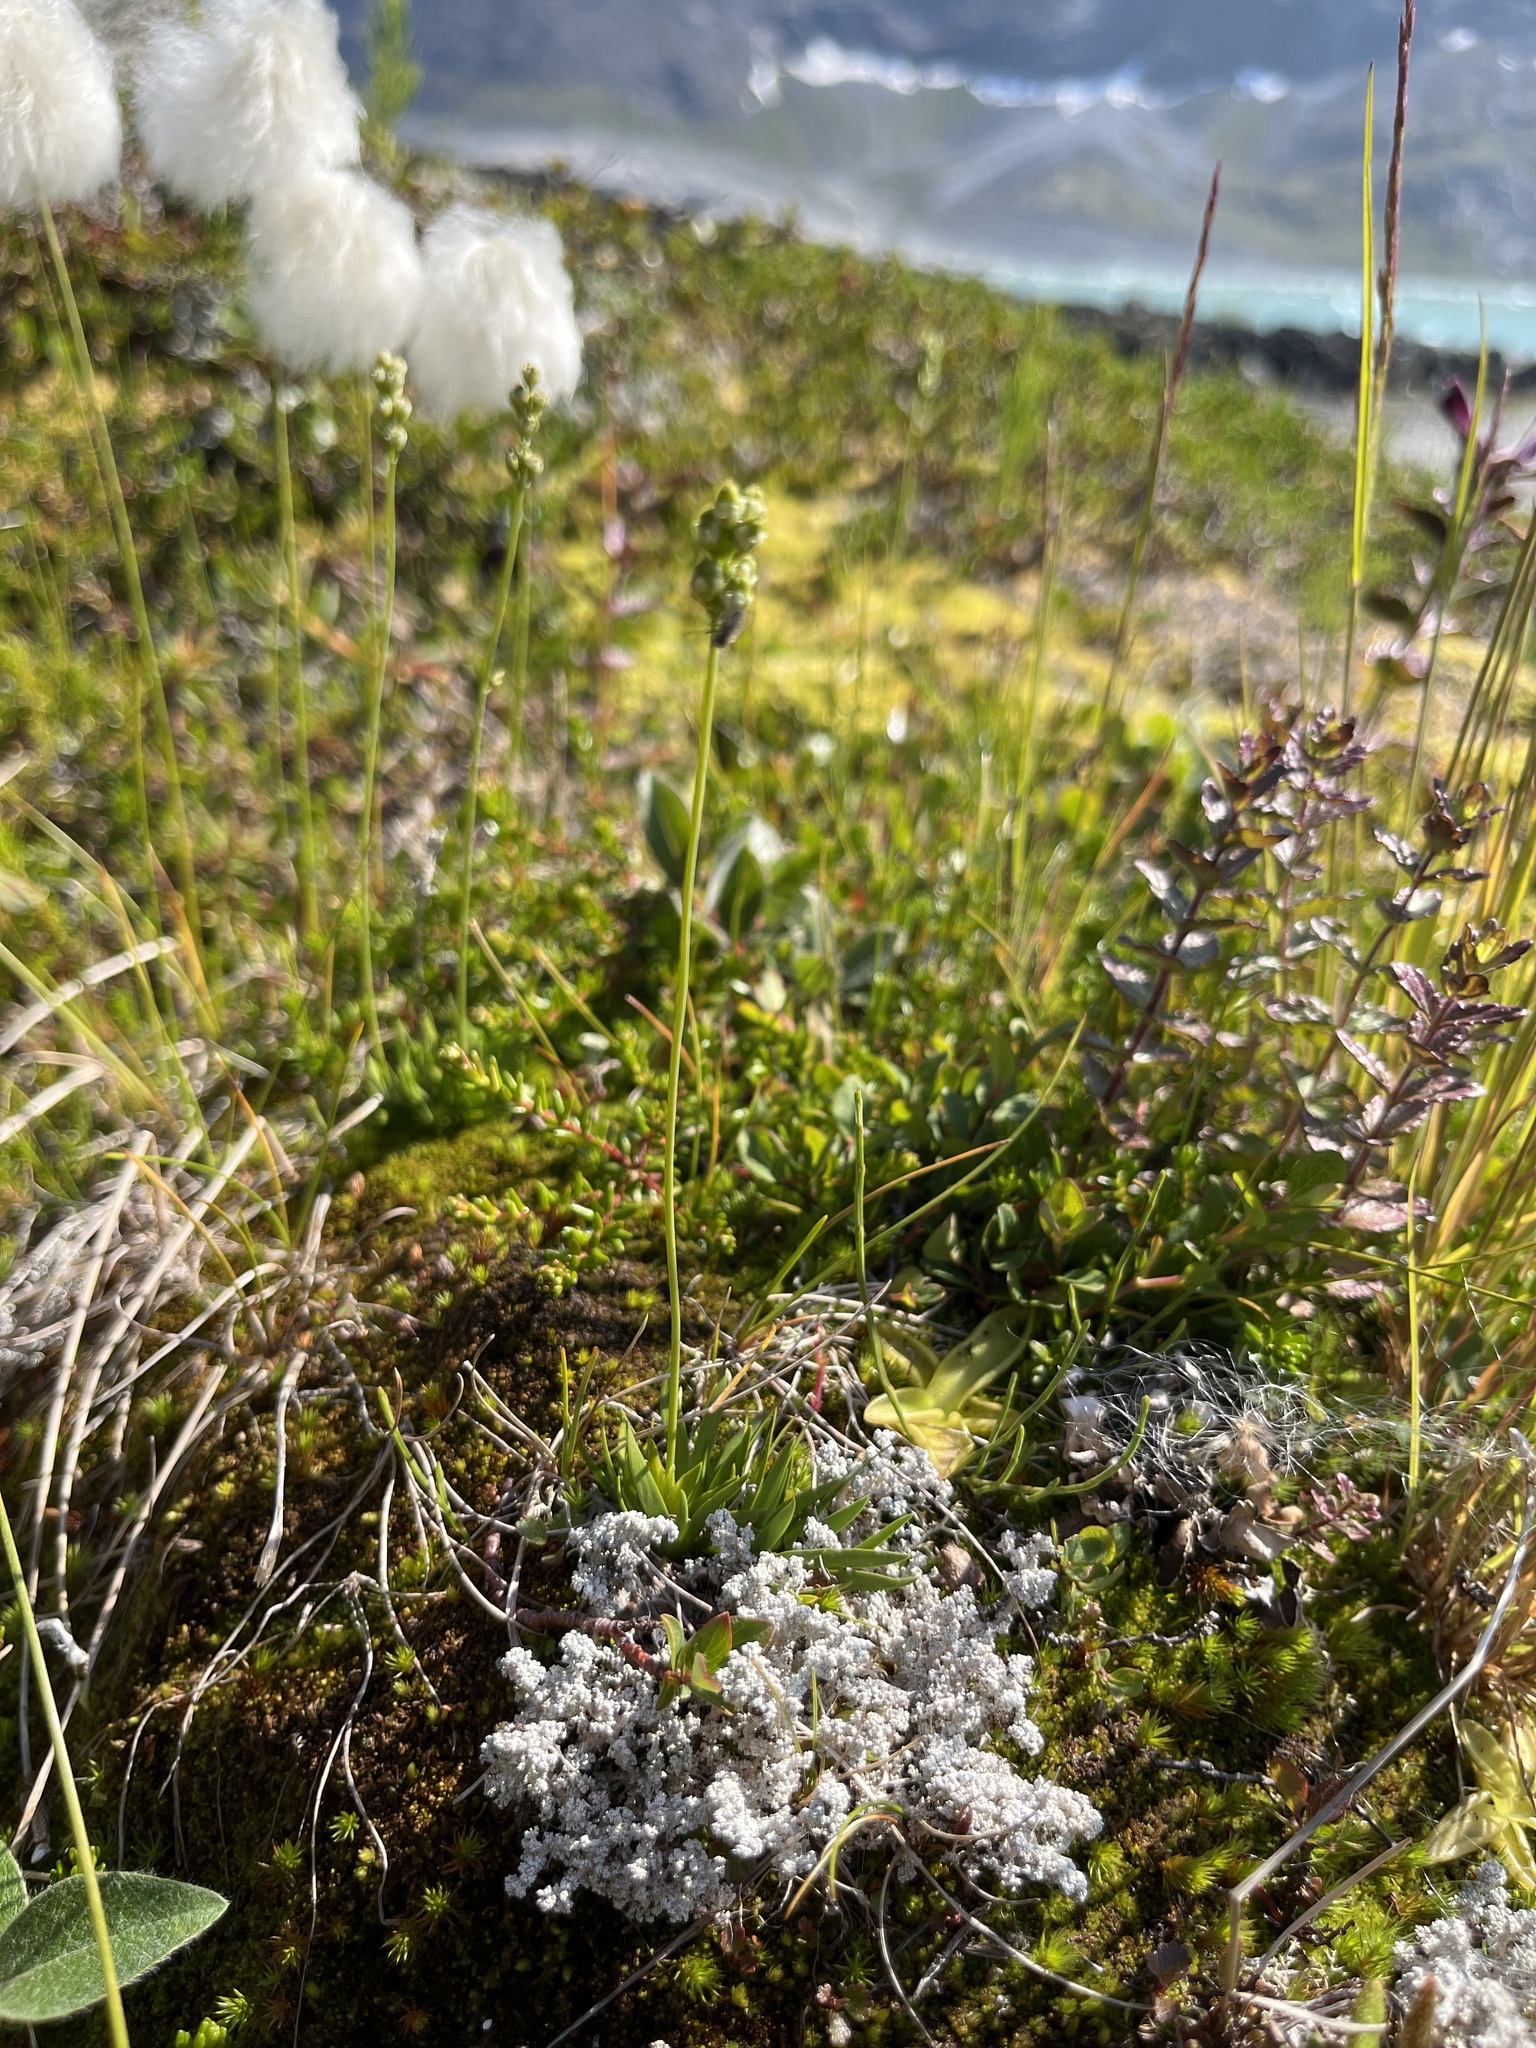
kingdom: Plantae
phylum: Tracheophyta
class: Liliopsida
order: Alismatales
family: Tofieldiaceae
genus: Tofieldia
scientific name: Tofieldia pusilla
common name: Scottish false asphodel
